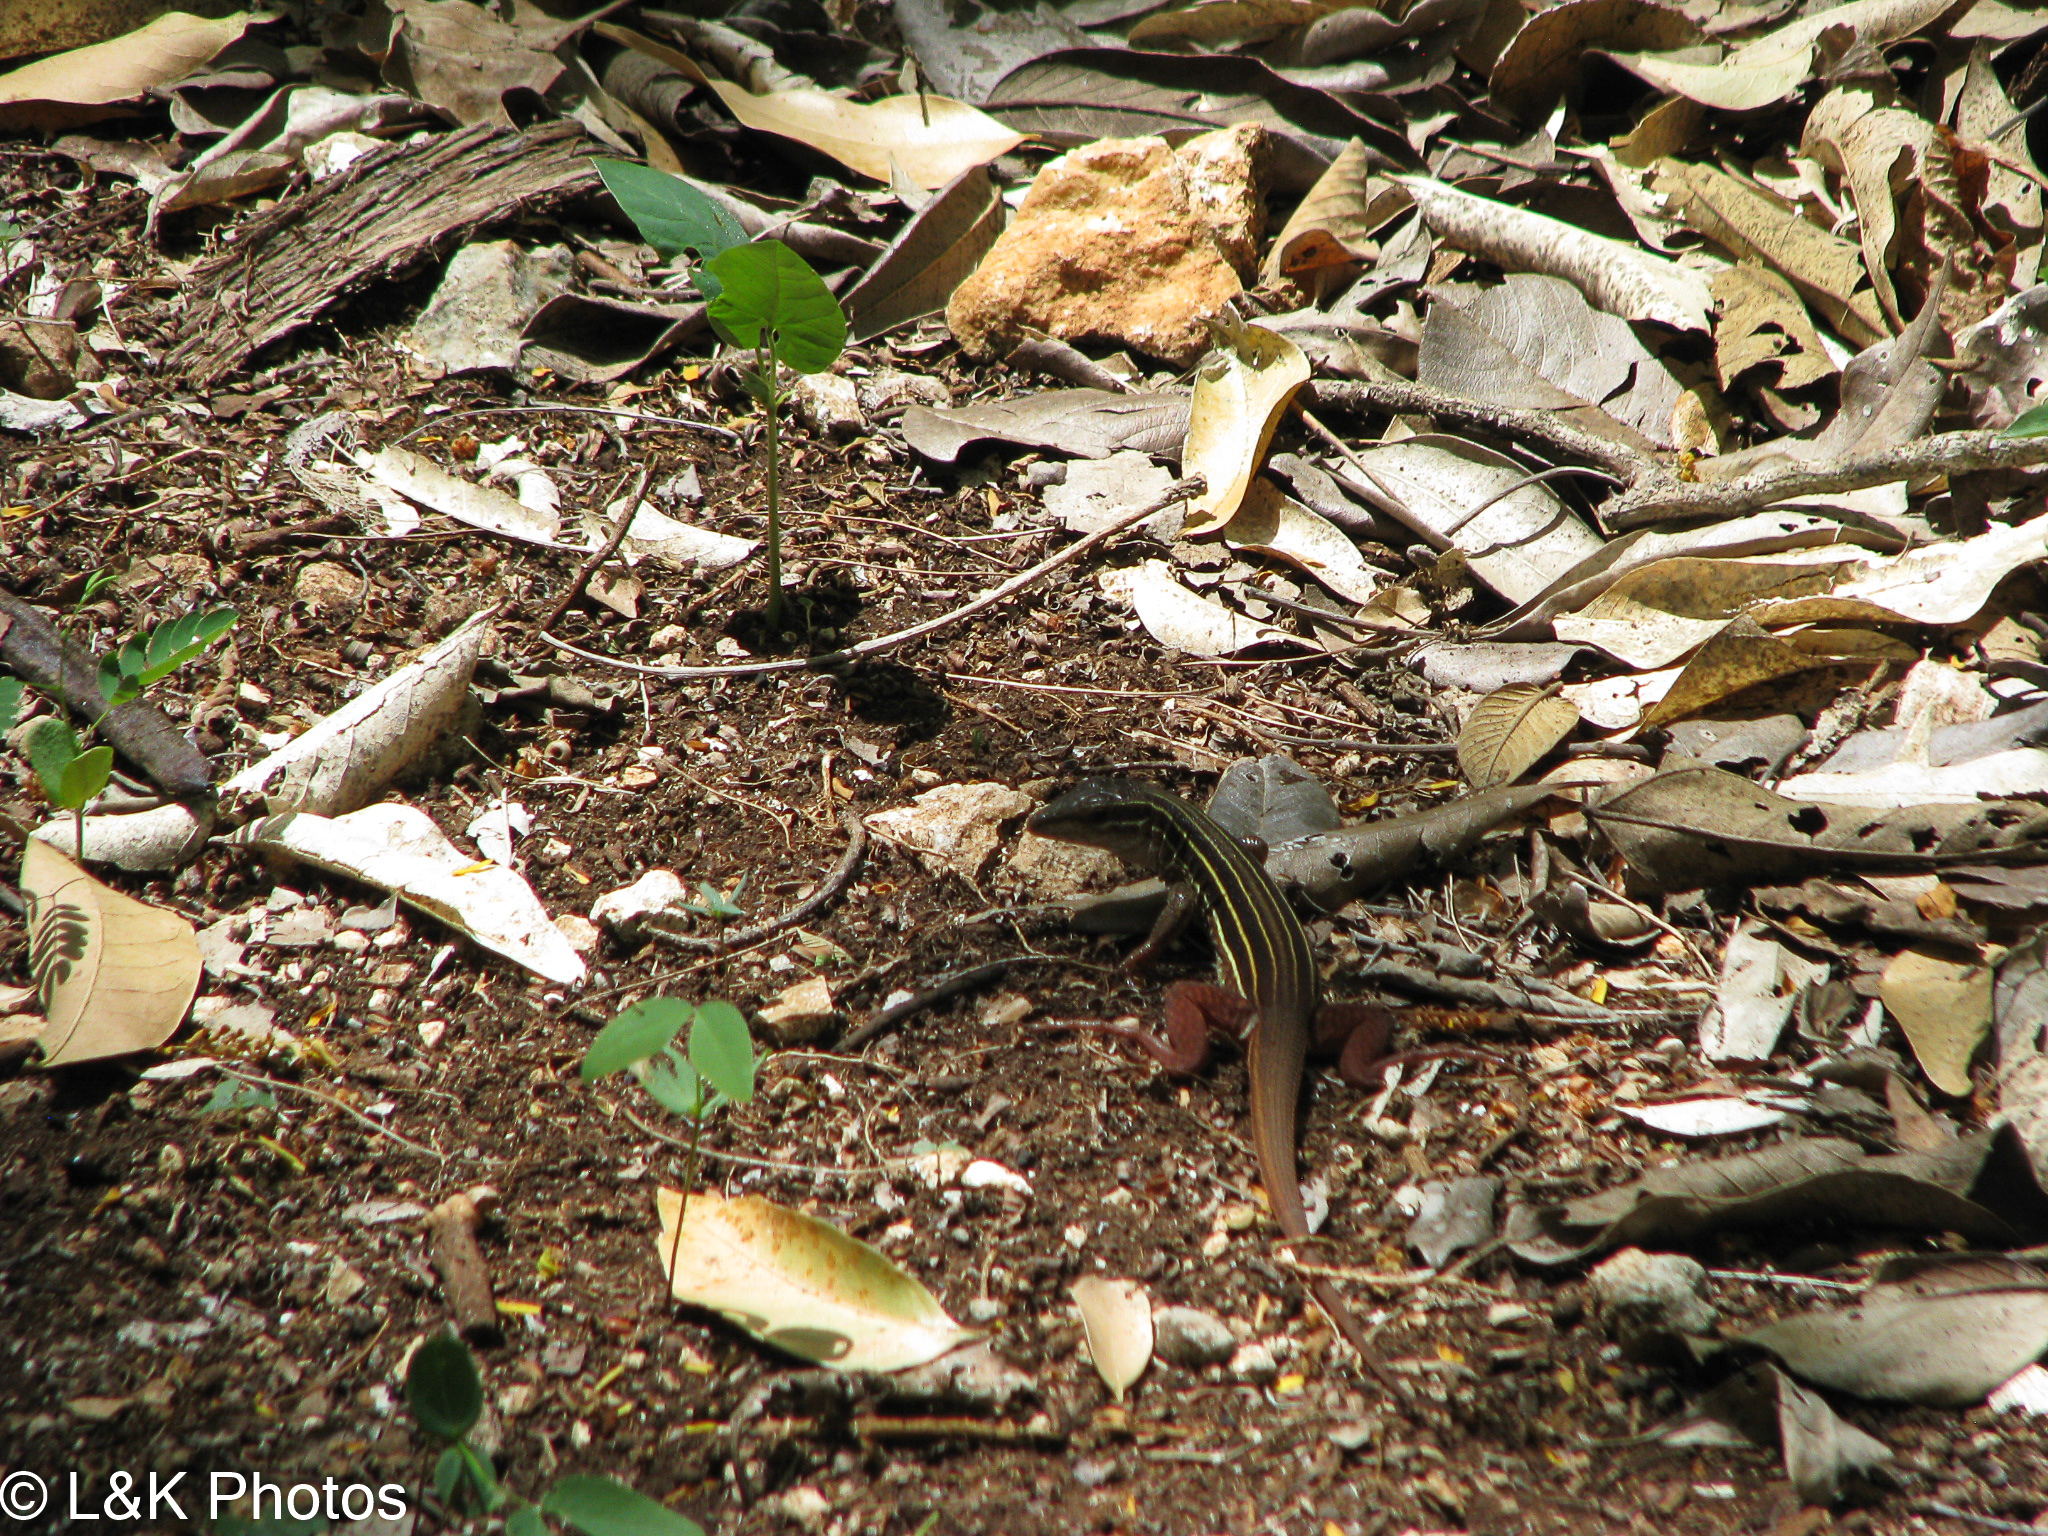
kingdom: Animalia
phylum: Chordata
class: Squamata
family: Teiidae
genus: Aspidoscelis
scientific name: Aspidoscelis angusticeps
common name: Yucatan whiptail
